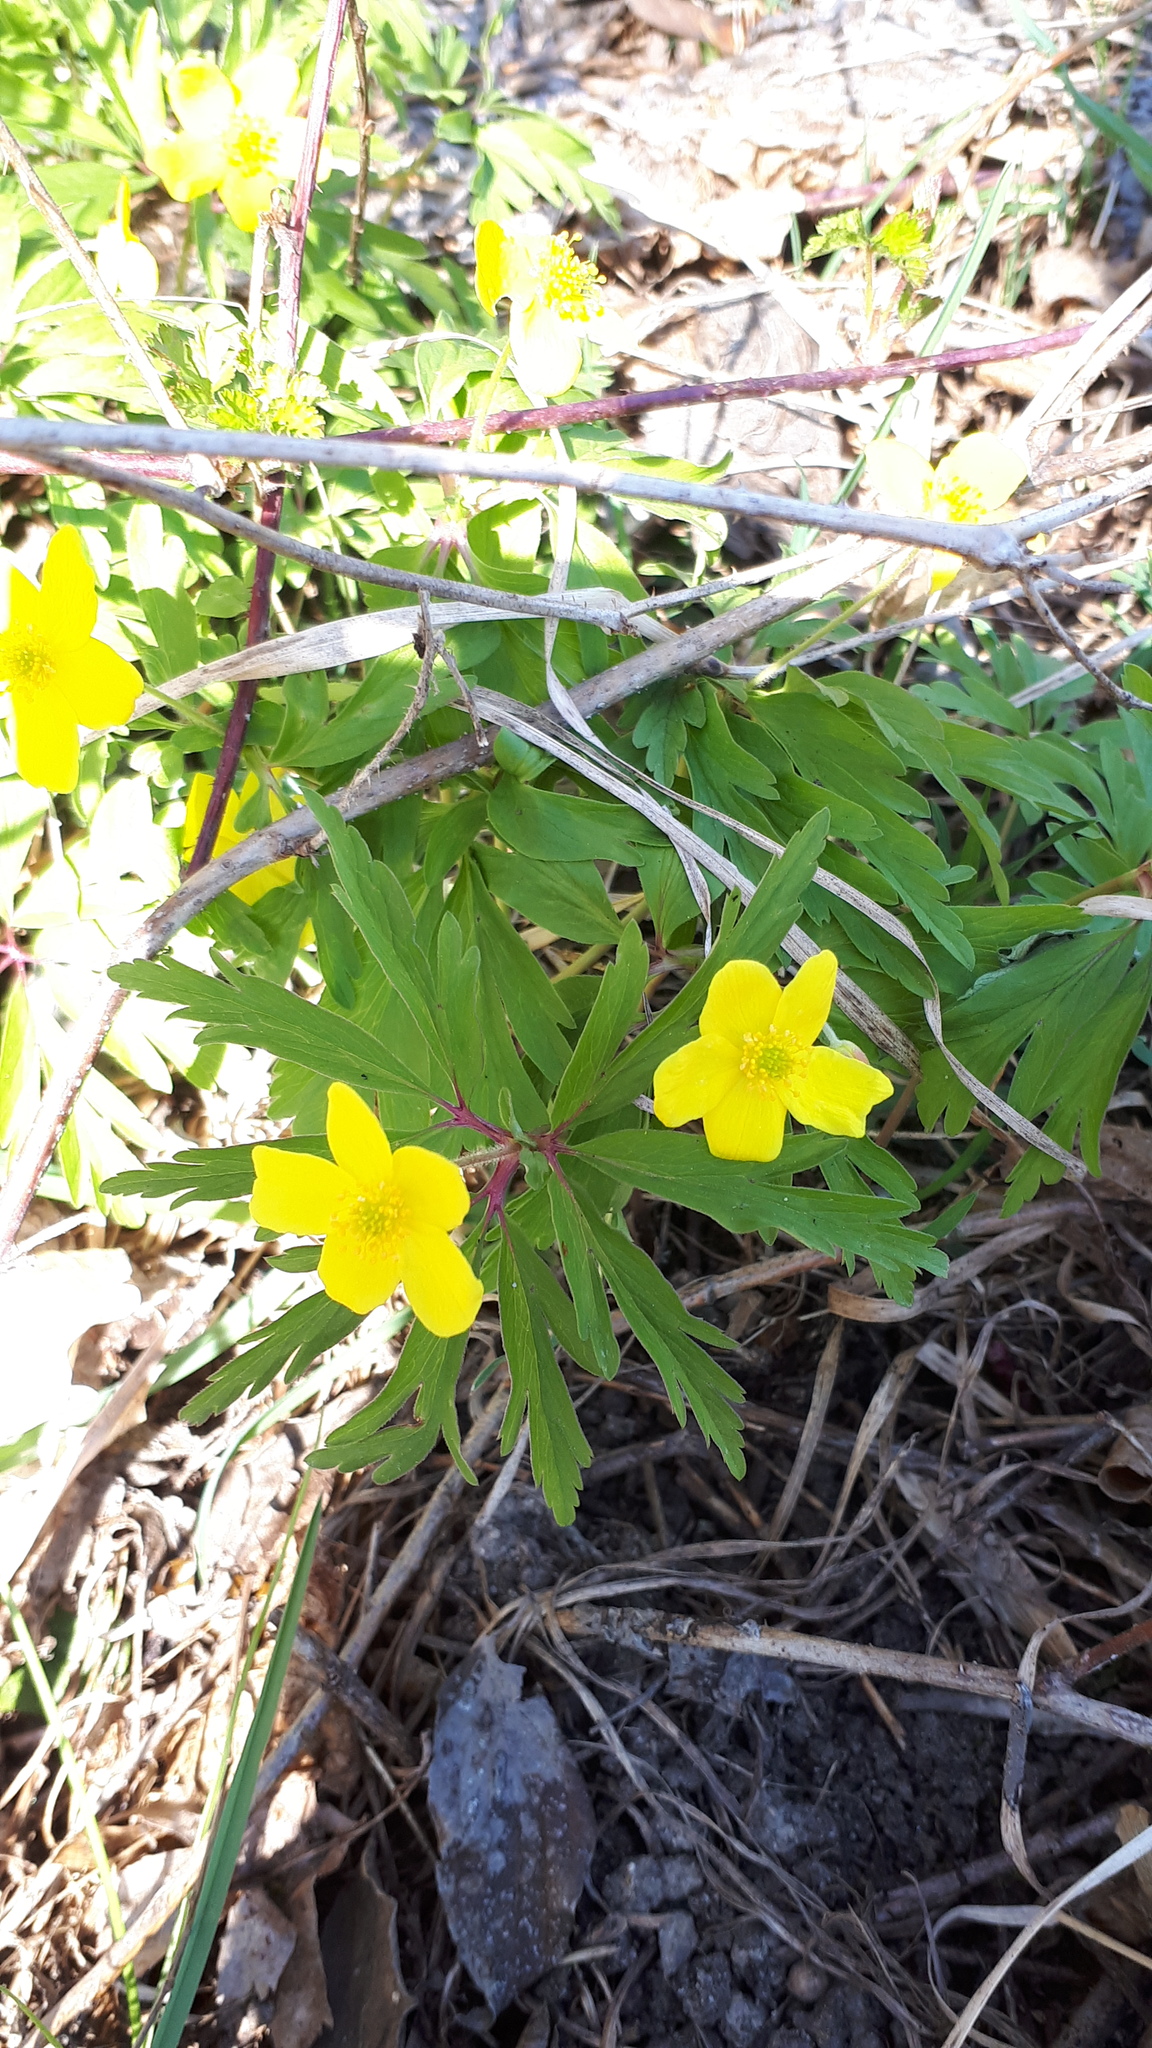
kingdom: Plantae
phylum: Tracheophyta
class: Magnoliopsida
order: Ranunculales
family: Ranunculaceae
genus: Anemone
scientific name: Anemone ranunculoides
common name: Yellow anemone
